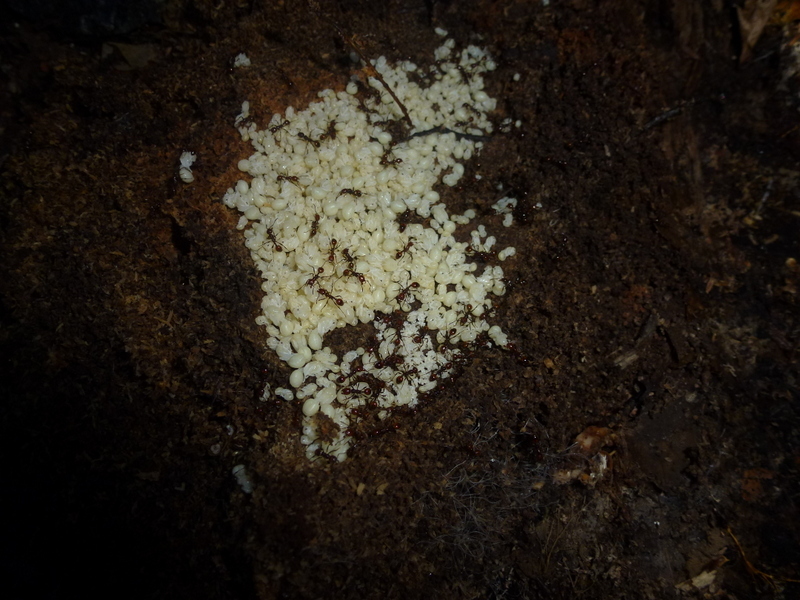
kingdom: Animalia
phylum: Arthropoda
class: Insecta
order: Hymenoptera
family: Formicidae
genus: Huberia
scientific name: Huberia striata
